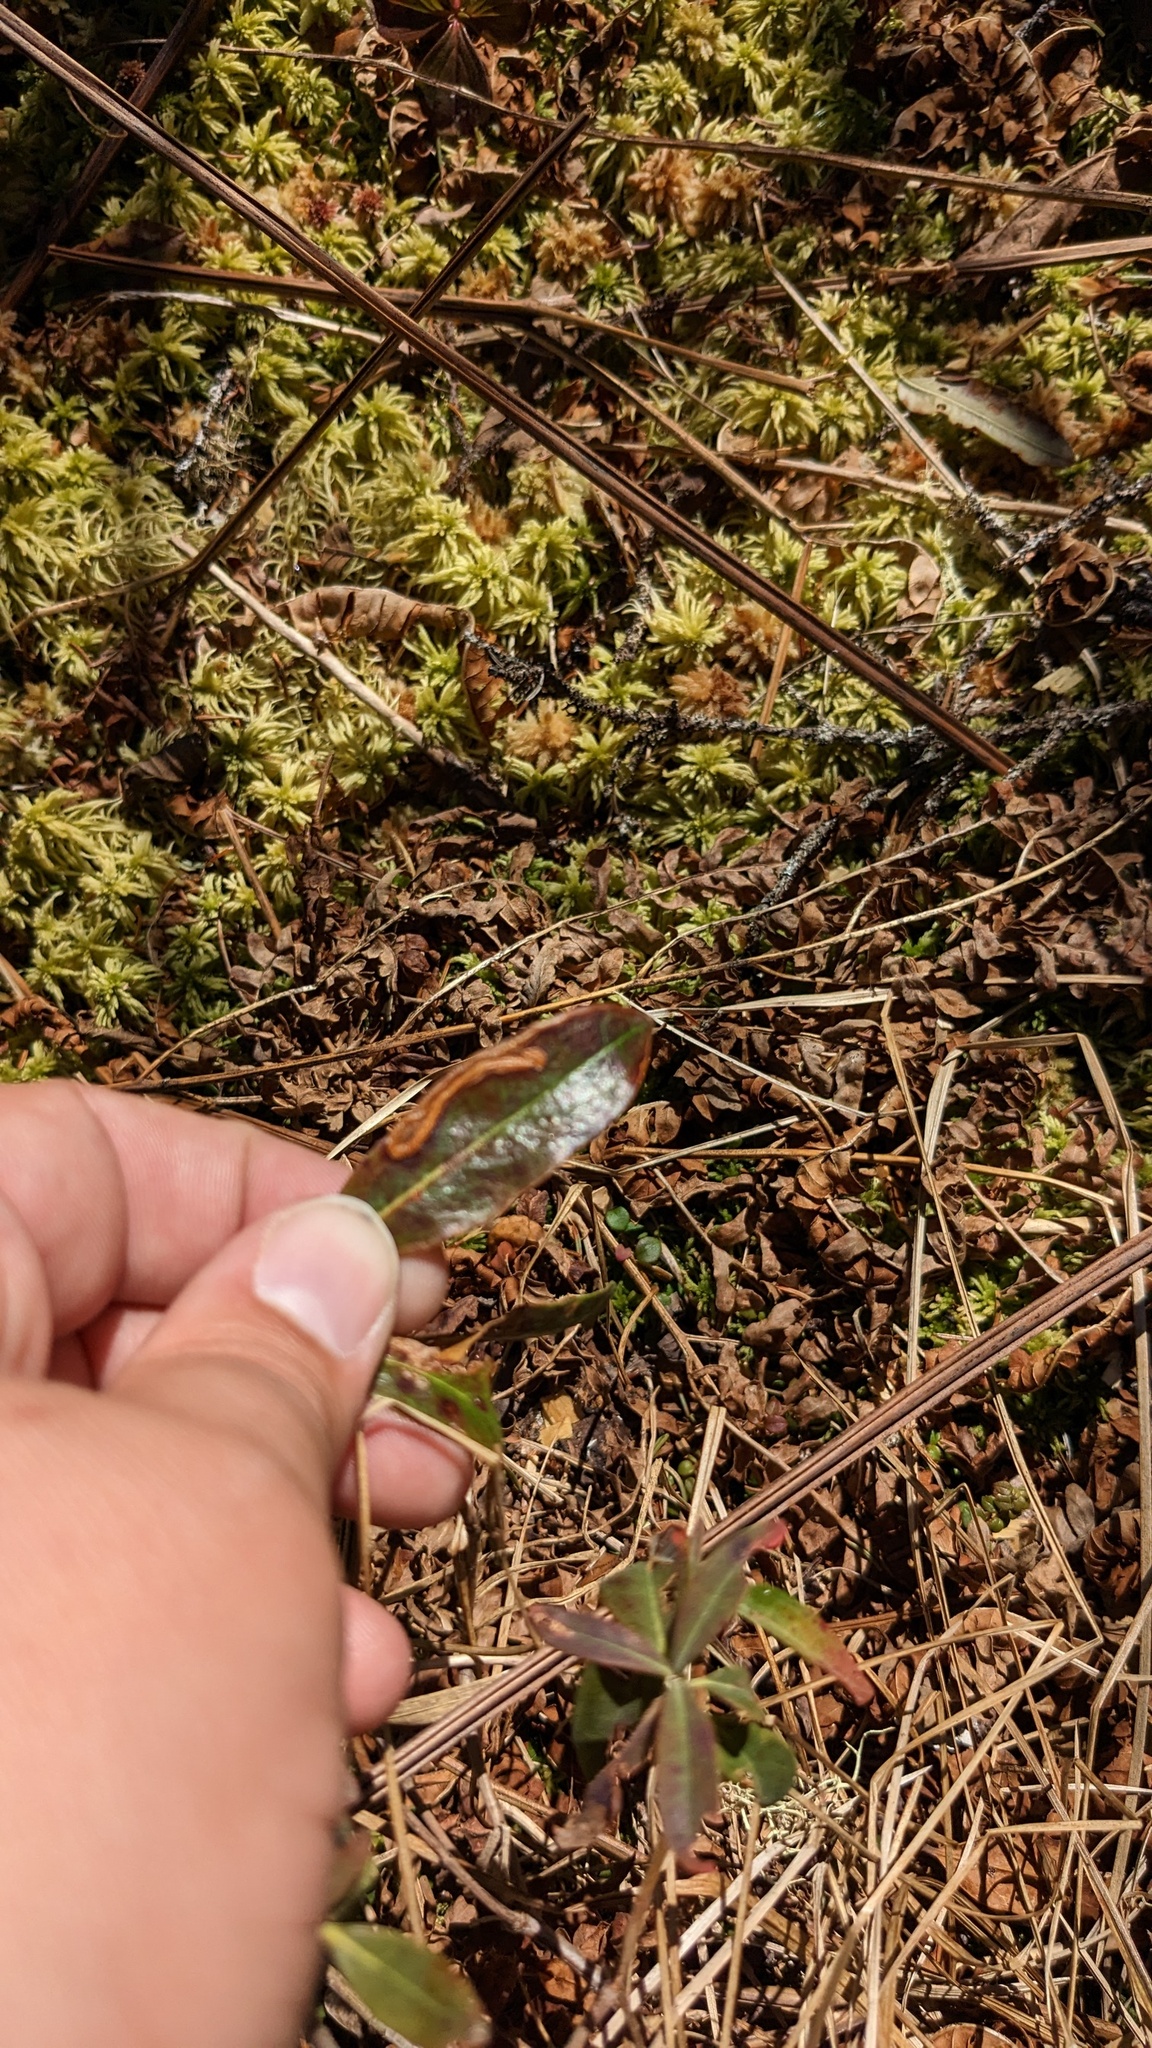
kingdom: Animalia
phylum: Arthropoda
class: Insecta
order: Lepidoptera
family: Coleophoridae
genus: Coleophora
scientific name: Coleophora kalmiella
